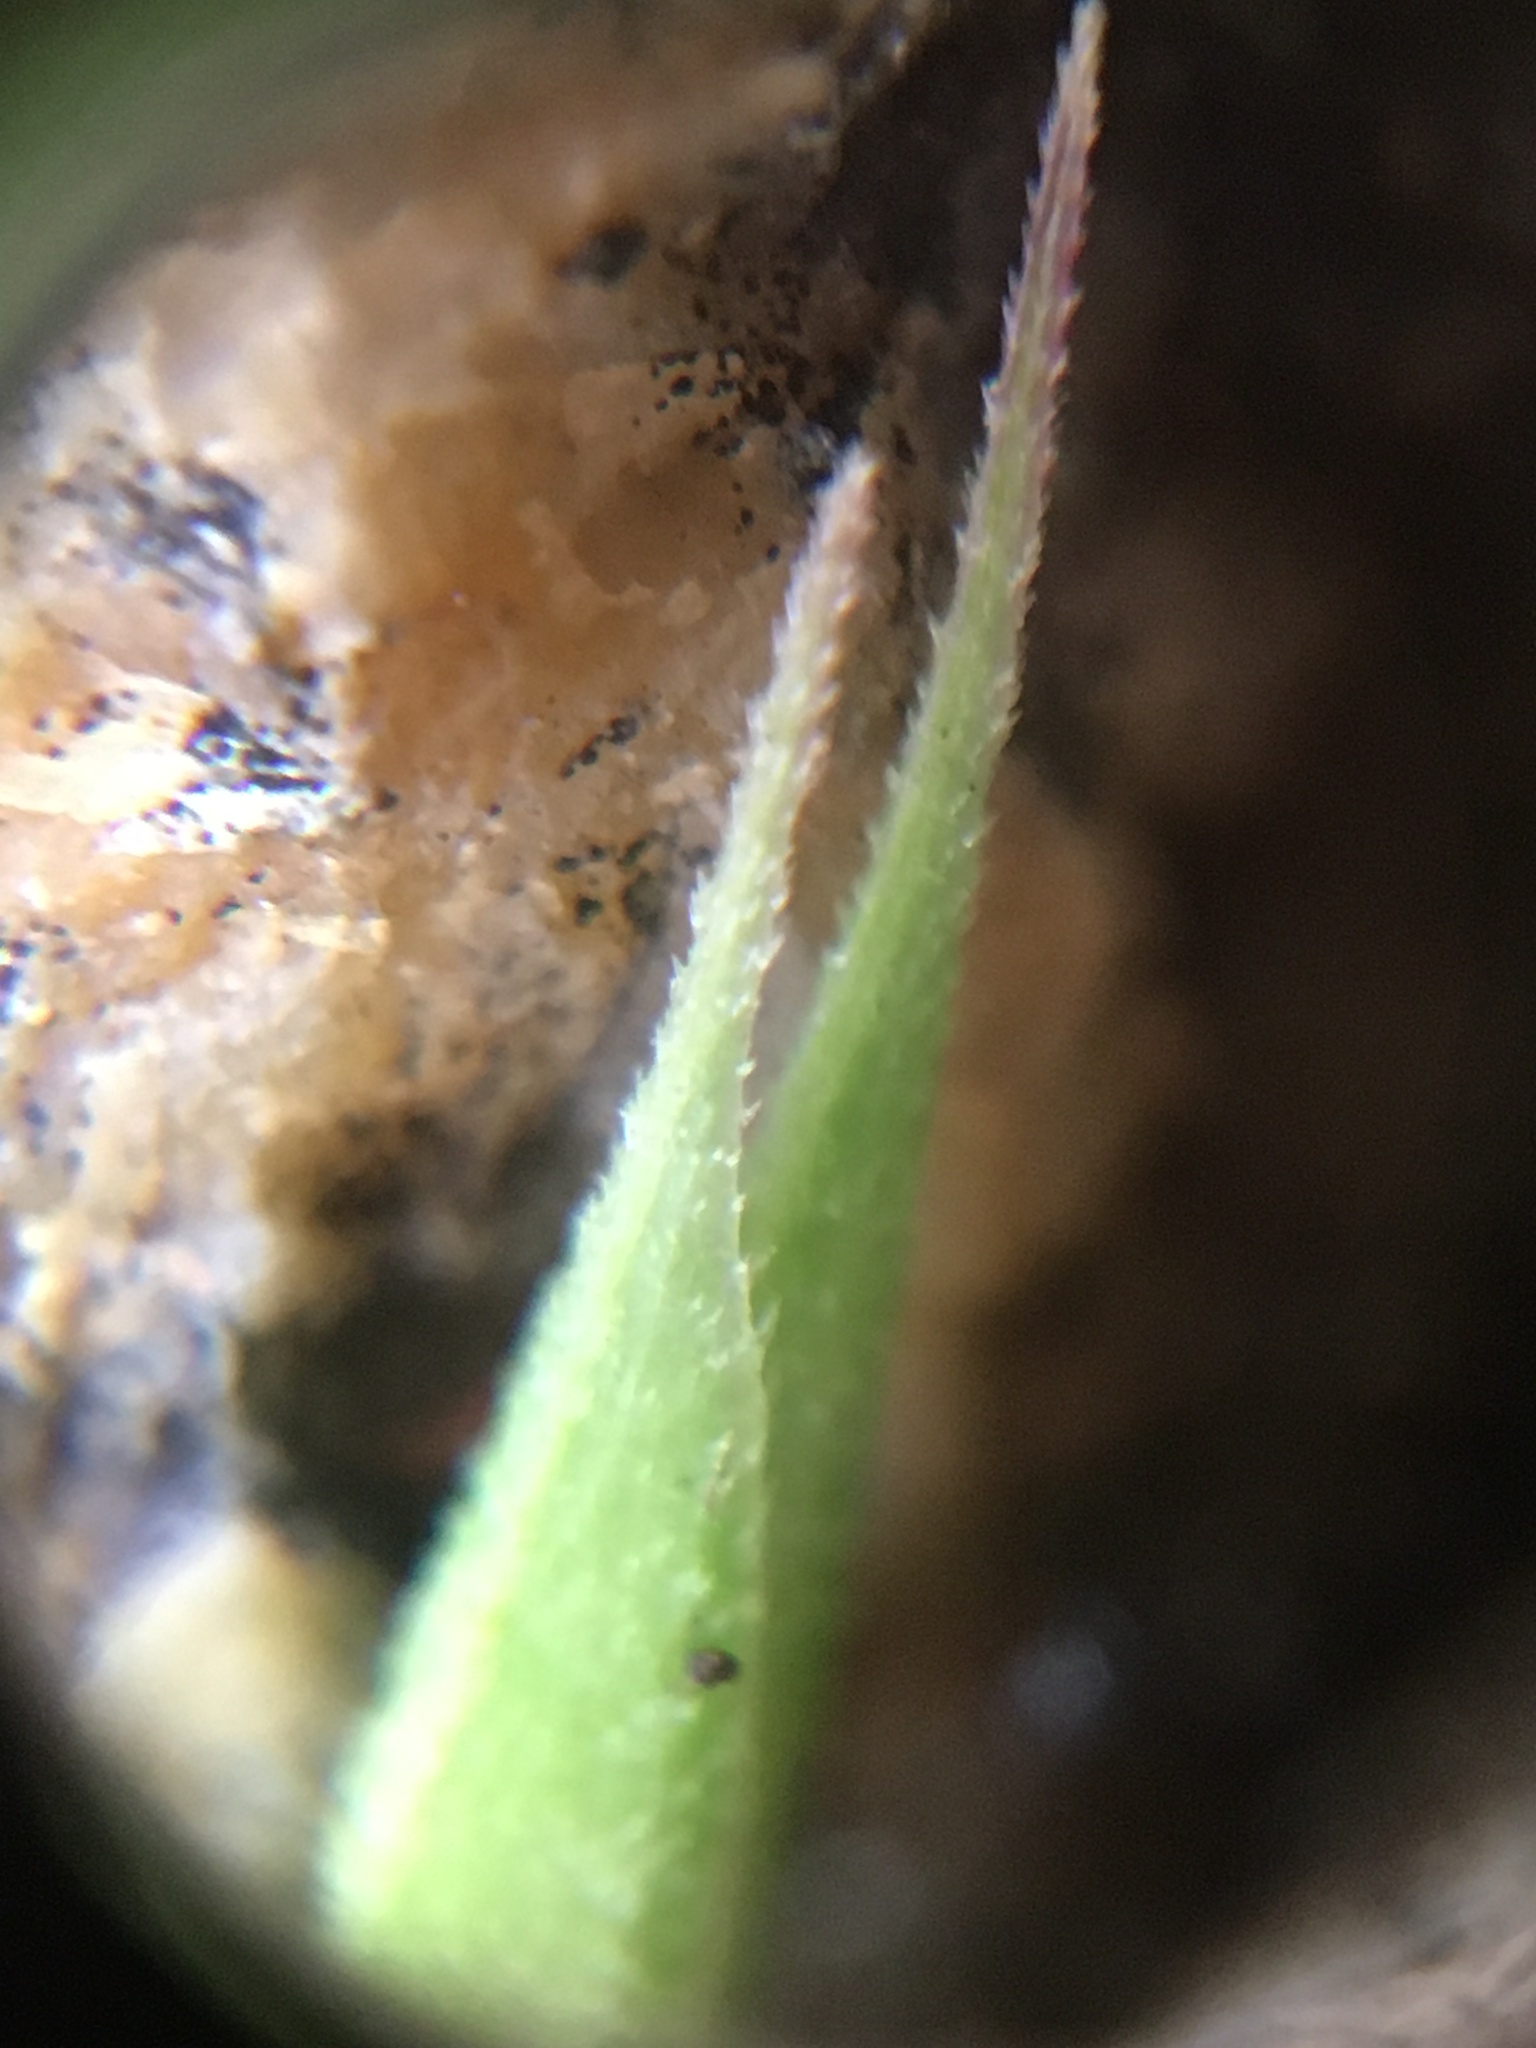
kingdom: Plantae
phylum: Tracheophyta
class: Liliopsida
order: Poales
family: Poaceae
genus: Ehrharta
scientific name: Ehrharta longiflora
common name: Longflowered veldtgrass
